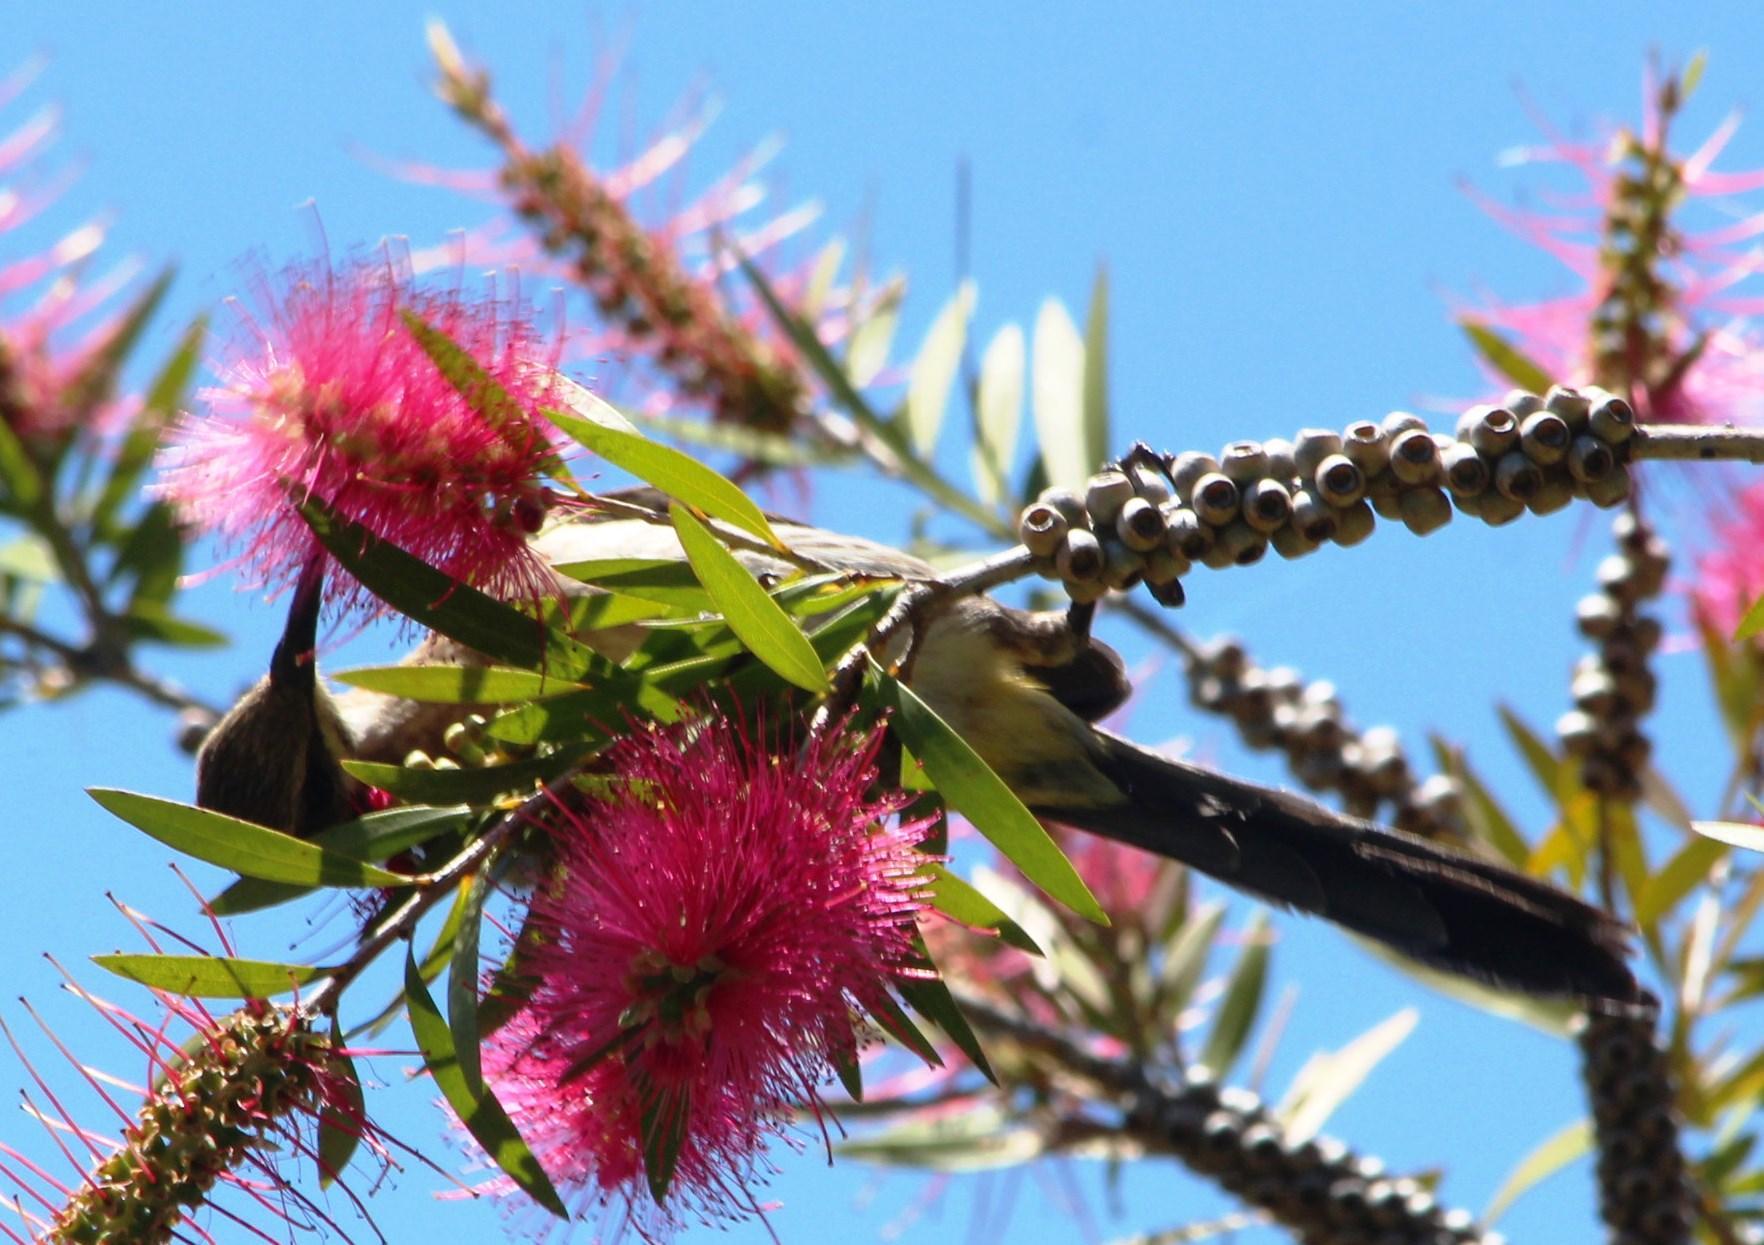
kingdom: Animalia
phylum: Chordata
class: Aves
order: Passeriformes
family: Promeropidae
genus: Promerops
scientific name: Promerops cafer
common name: Cape sugarbird
